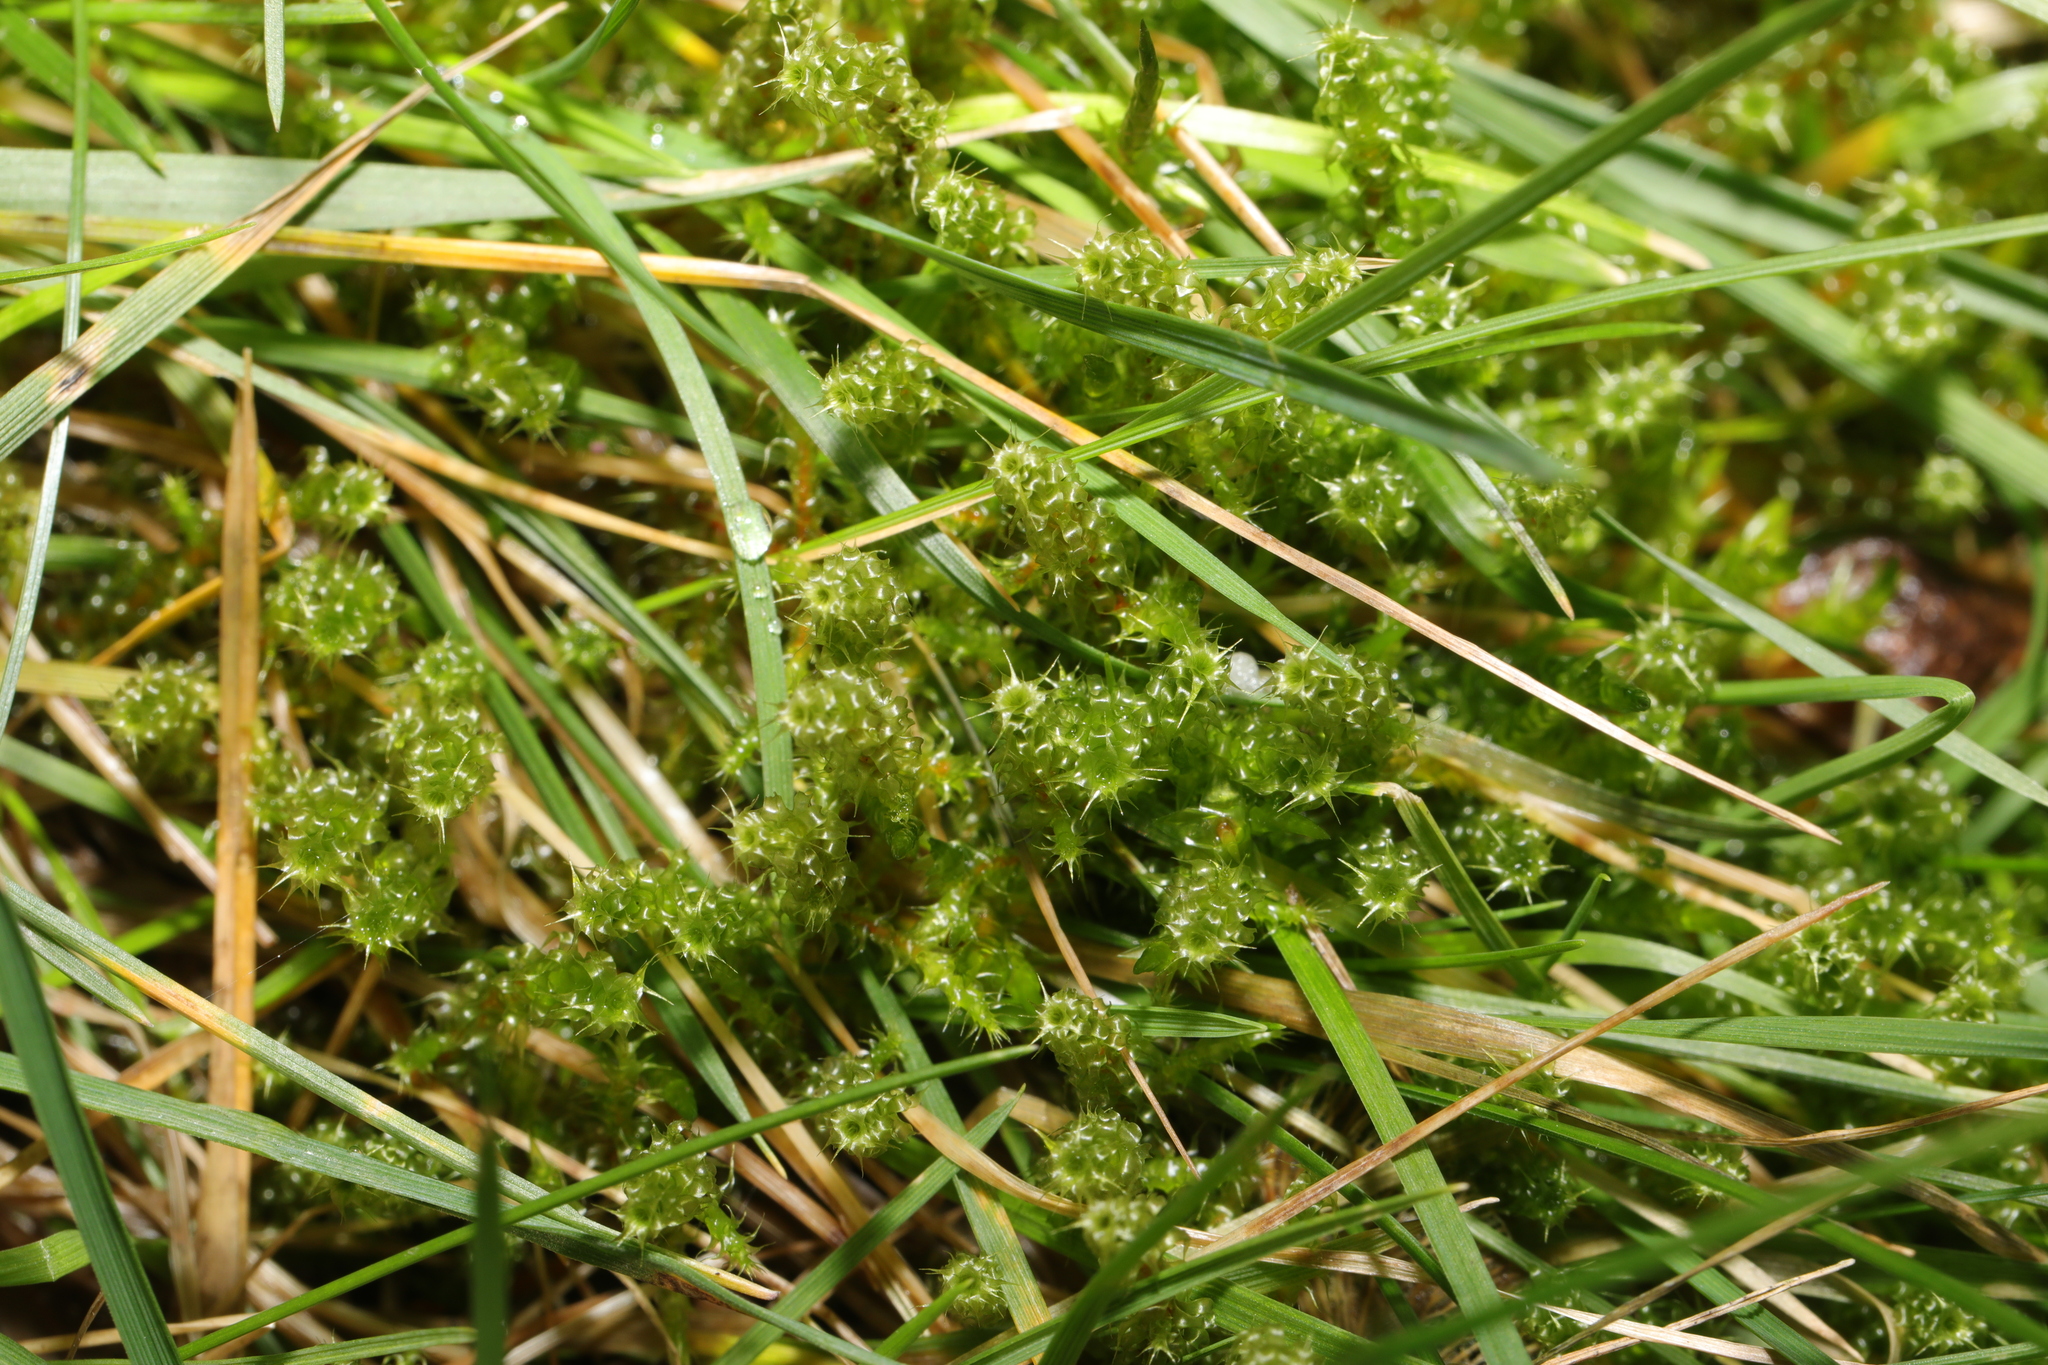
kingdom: Plantae
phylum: Bryophyta
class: Bryopsida
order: Hypnales
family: Hylocomiaceae
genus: Rhytidiadelphus
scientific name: Rhytidiadelphus squarrosus
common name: Springy turf-moss
